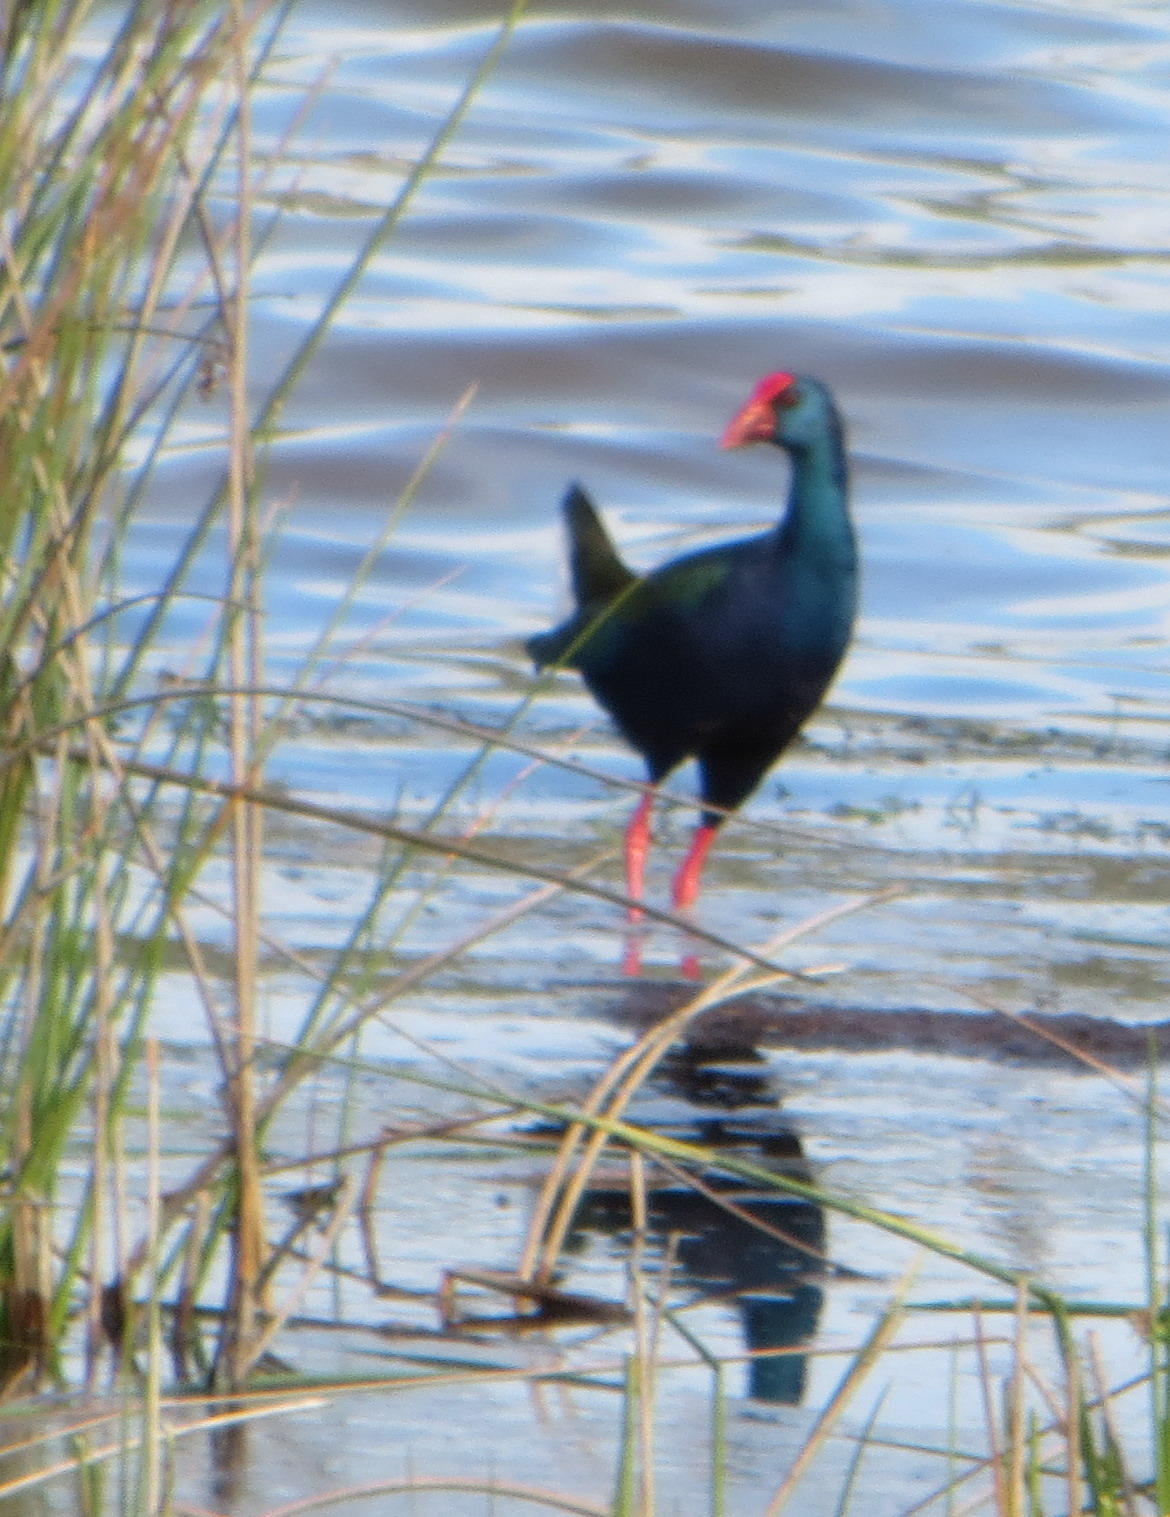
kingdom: Animalia
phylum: Chordata
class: Aves
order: Gruiformes
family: Rallidae
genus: Porphyrio
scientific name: Porphyrio porphyrio
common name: Purple swamphen
